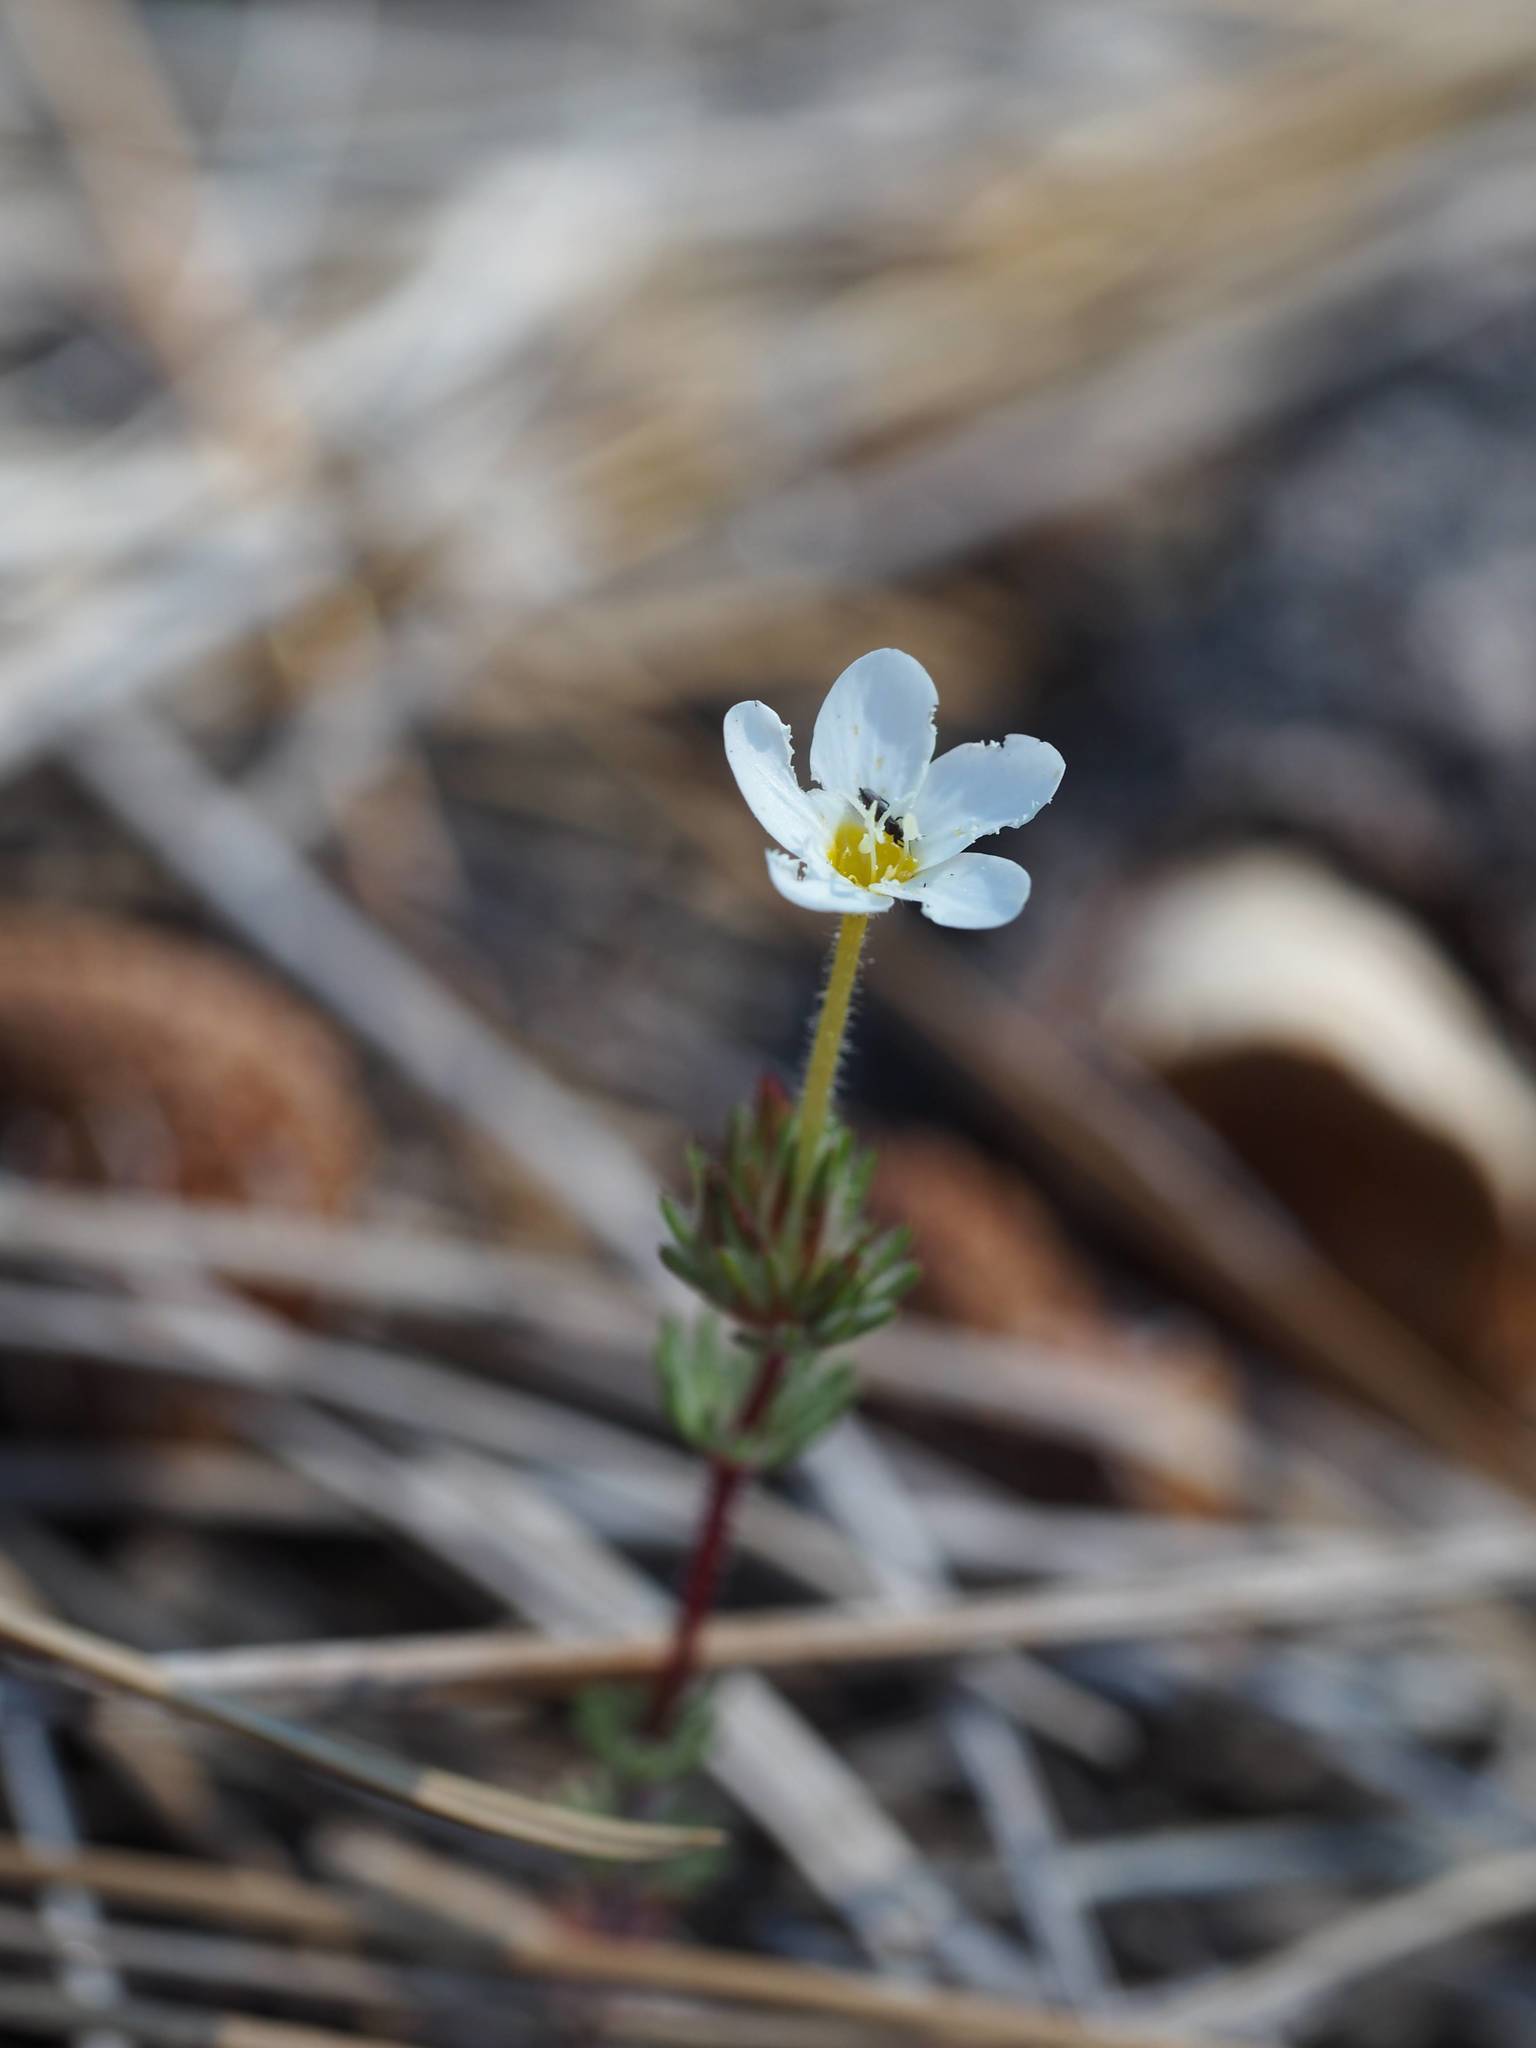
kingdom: Plantae
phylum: Tracheophyta
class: Magnoliopsida
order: Ericales
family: Polemoniaceae
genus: Leptosiphon
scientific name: Leptosiphon nudatus
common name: Tehachapi linanthus
